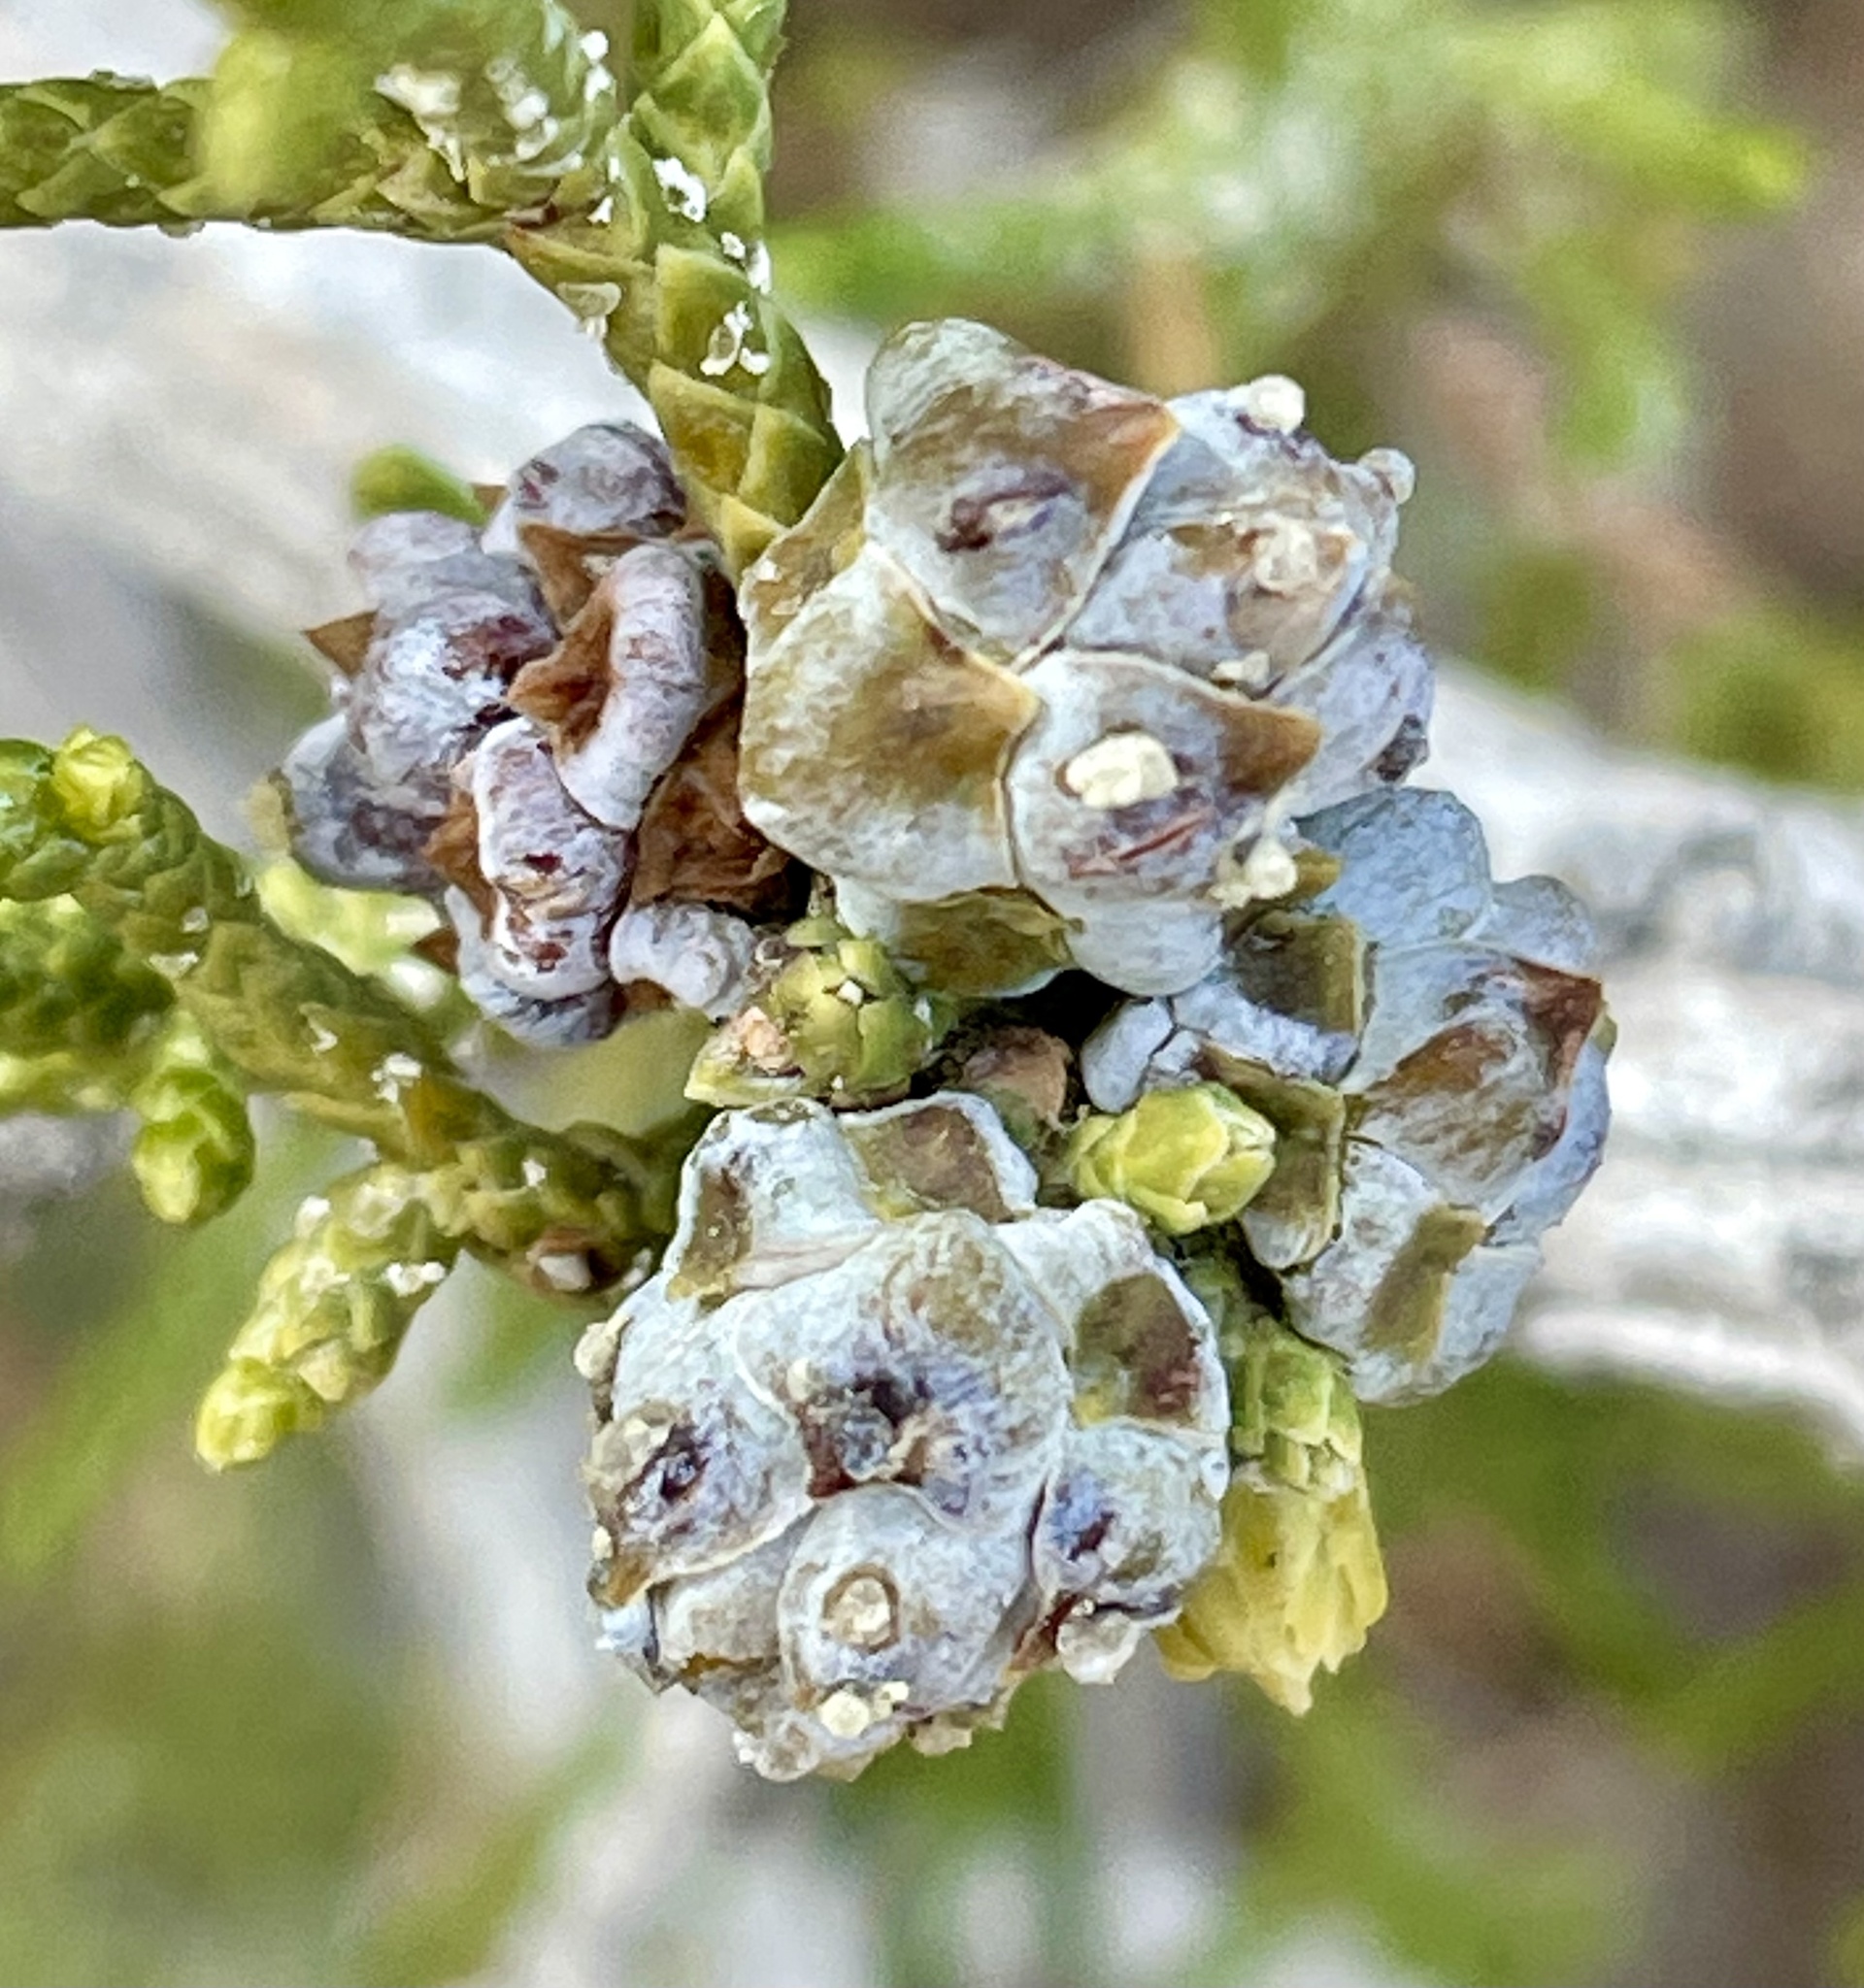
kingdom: Plantae
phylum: Tracheophyta
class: Pinopsida
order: Pinales
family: Cupressaceae
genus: Juniperus
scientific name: Juniperus californica
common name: California juniper
